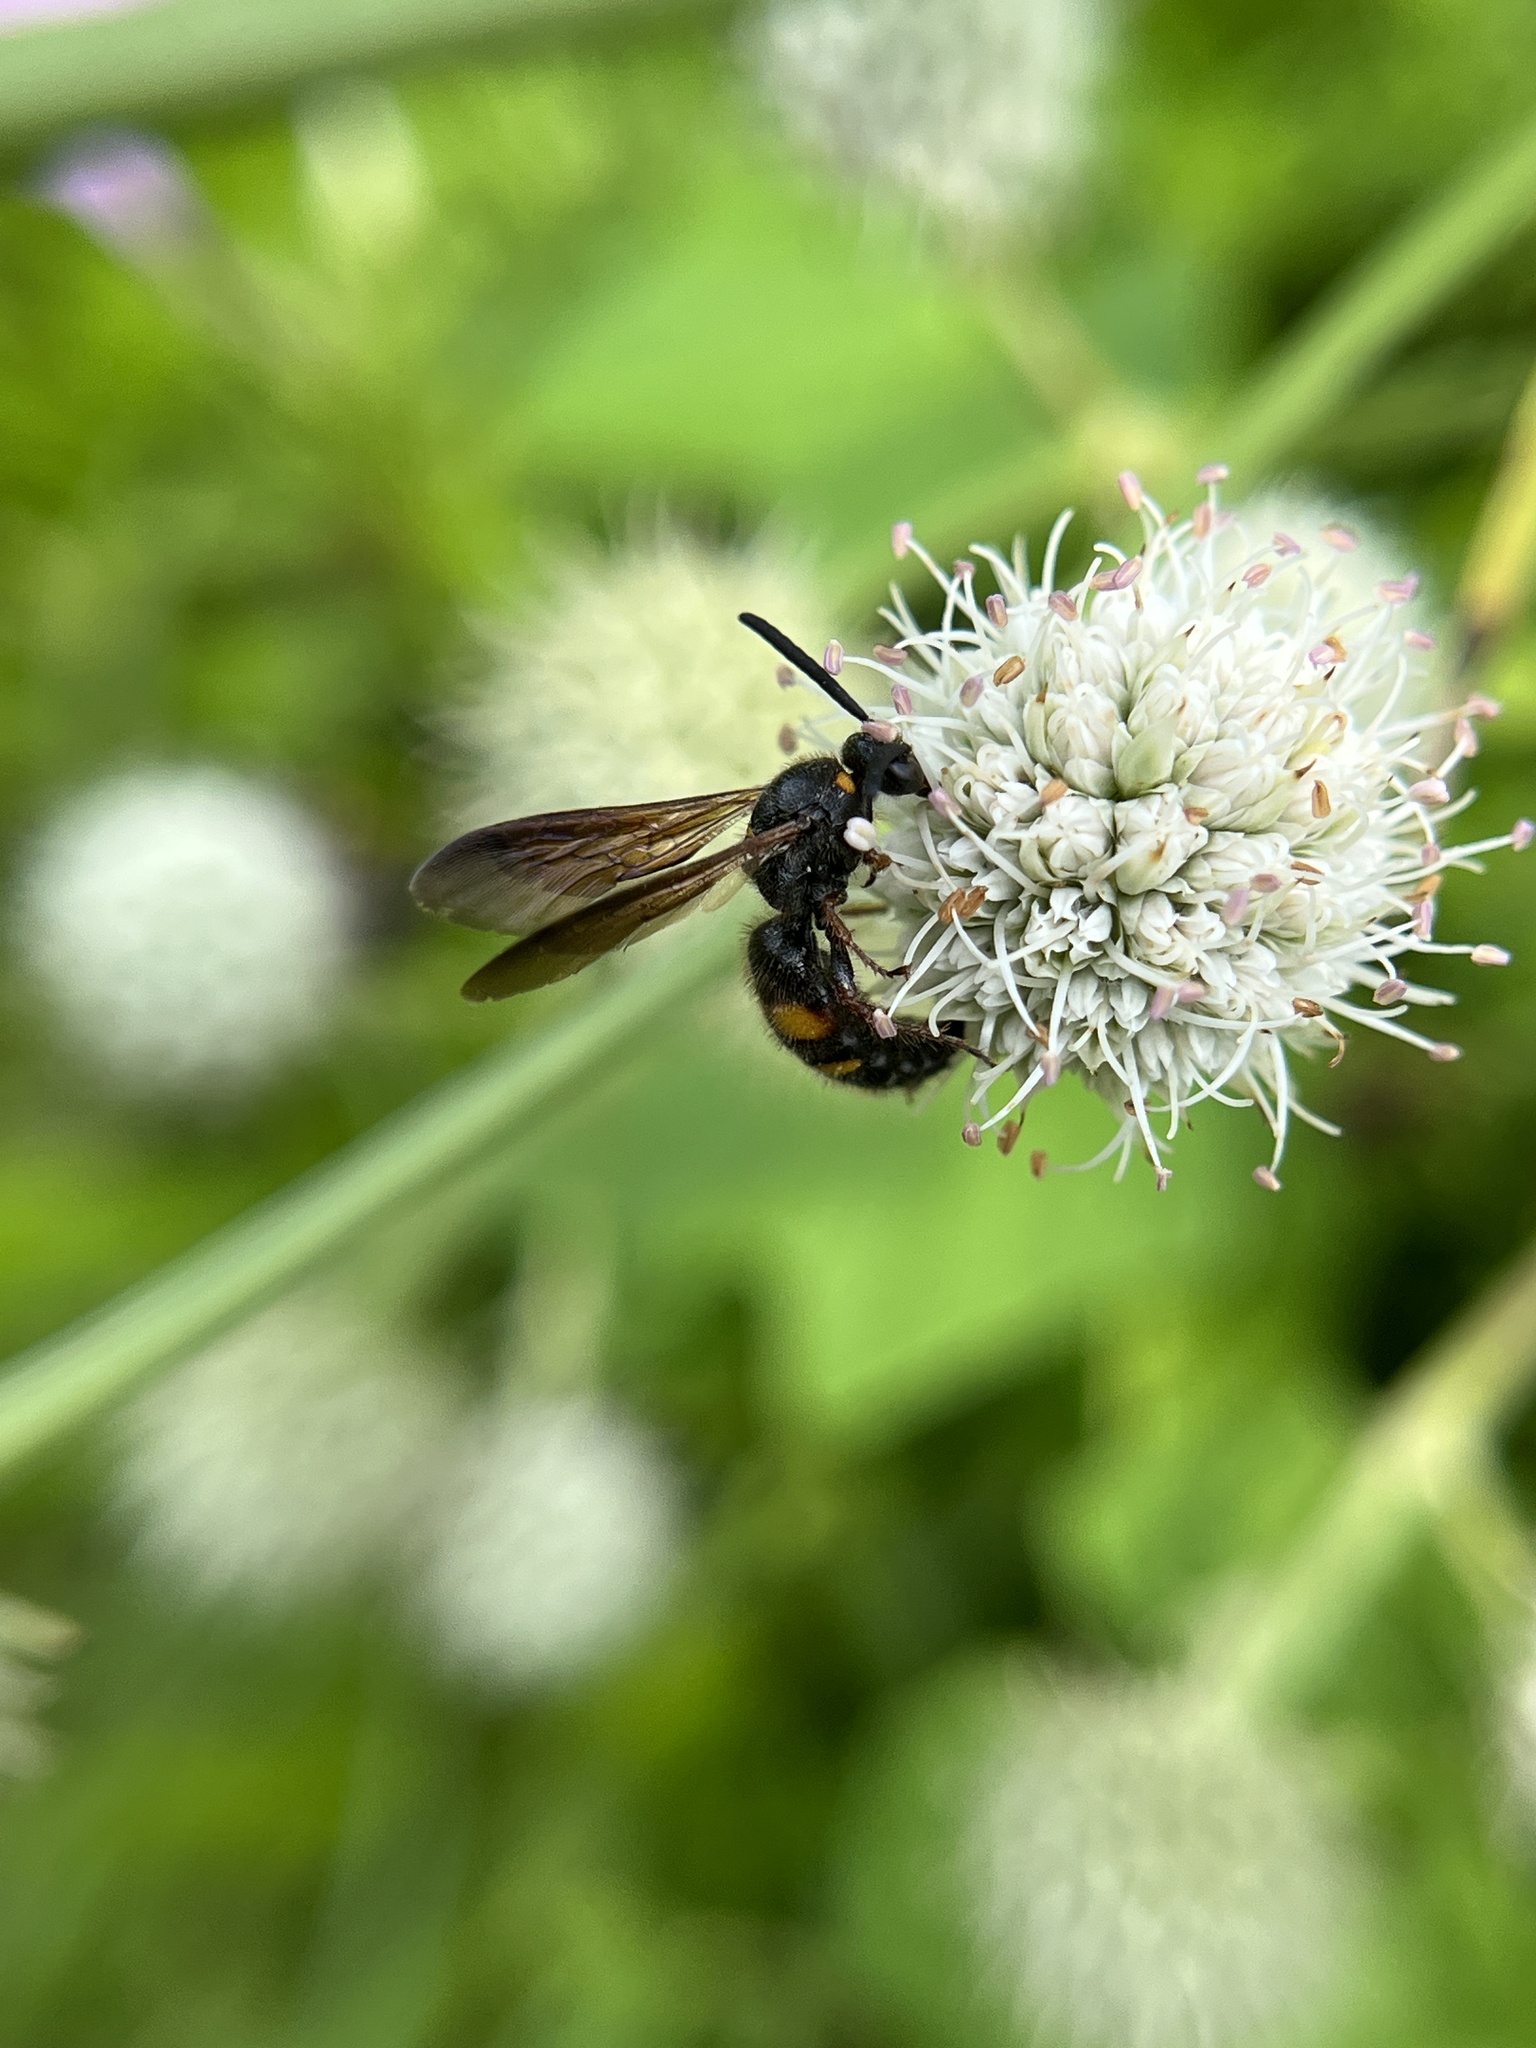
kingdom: Animalia
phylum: Arthropoda
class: Insecta
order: Hymenoptera
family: Scoliidae
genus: Scolia
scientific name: Scolia nobilitata
